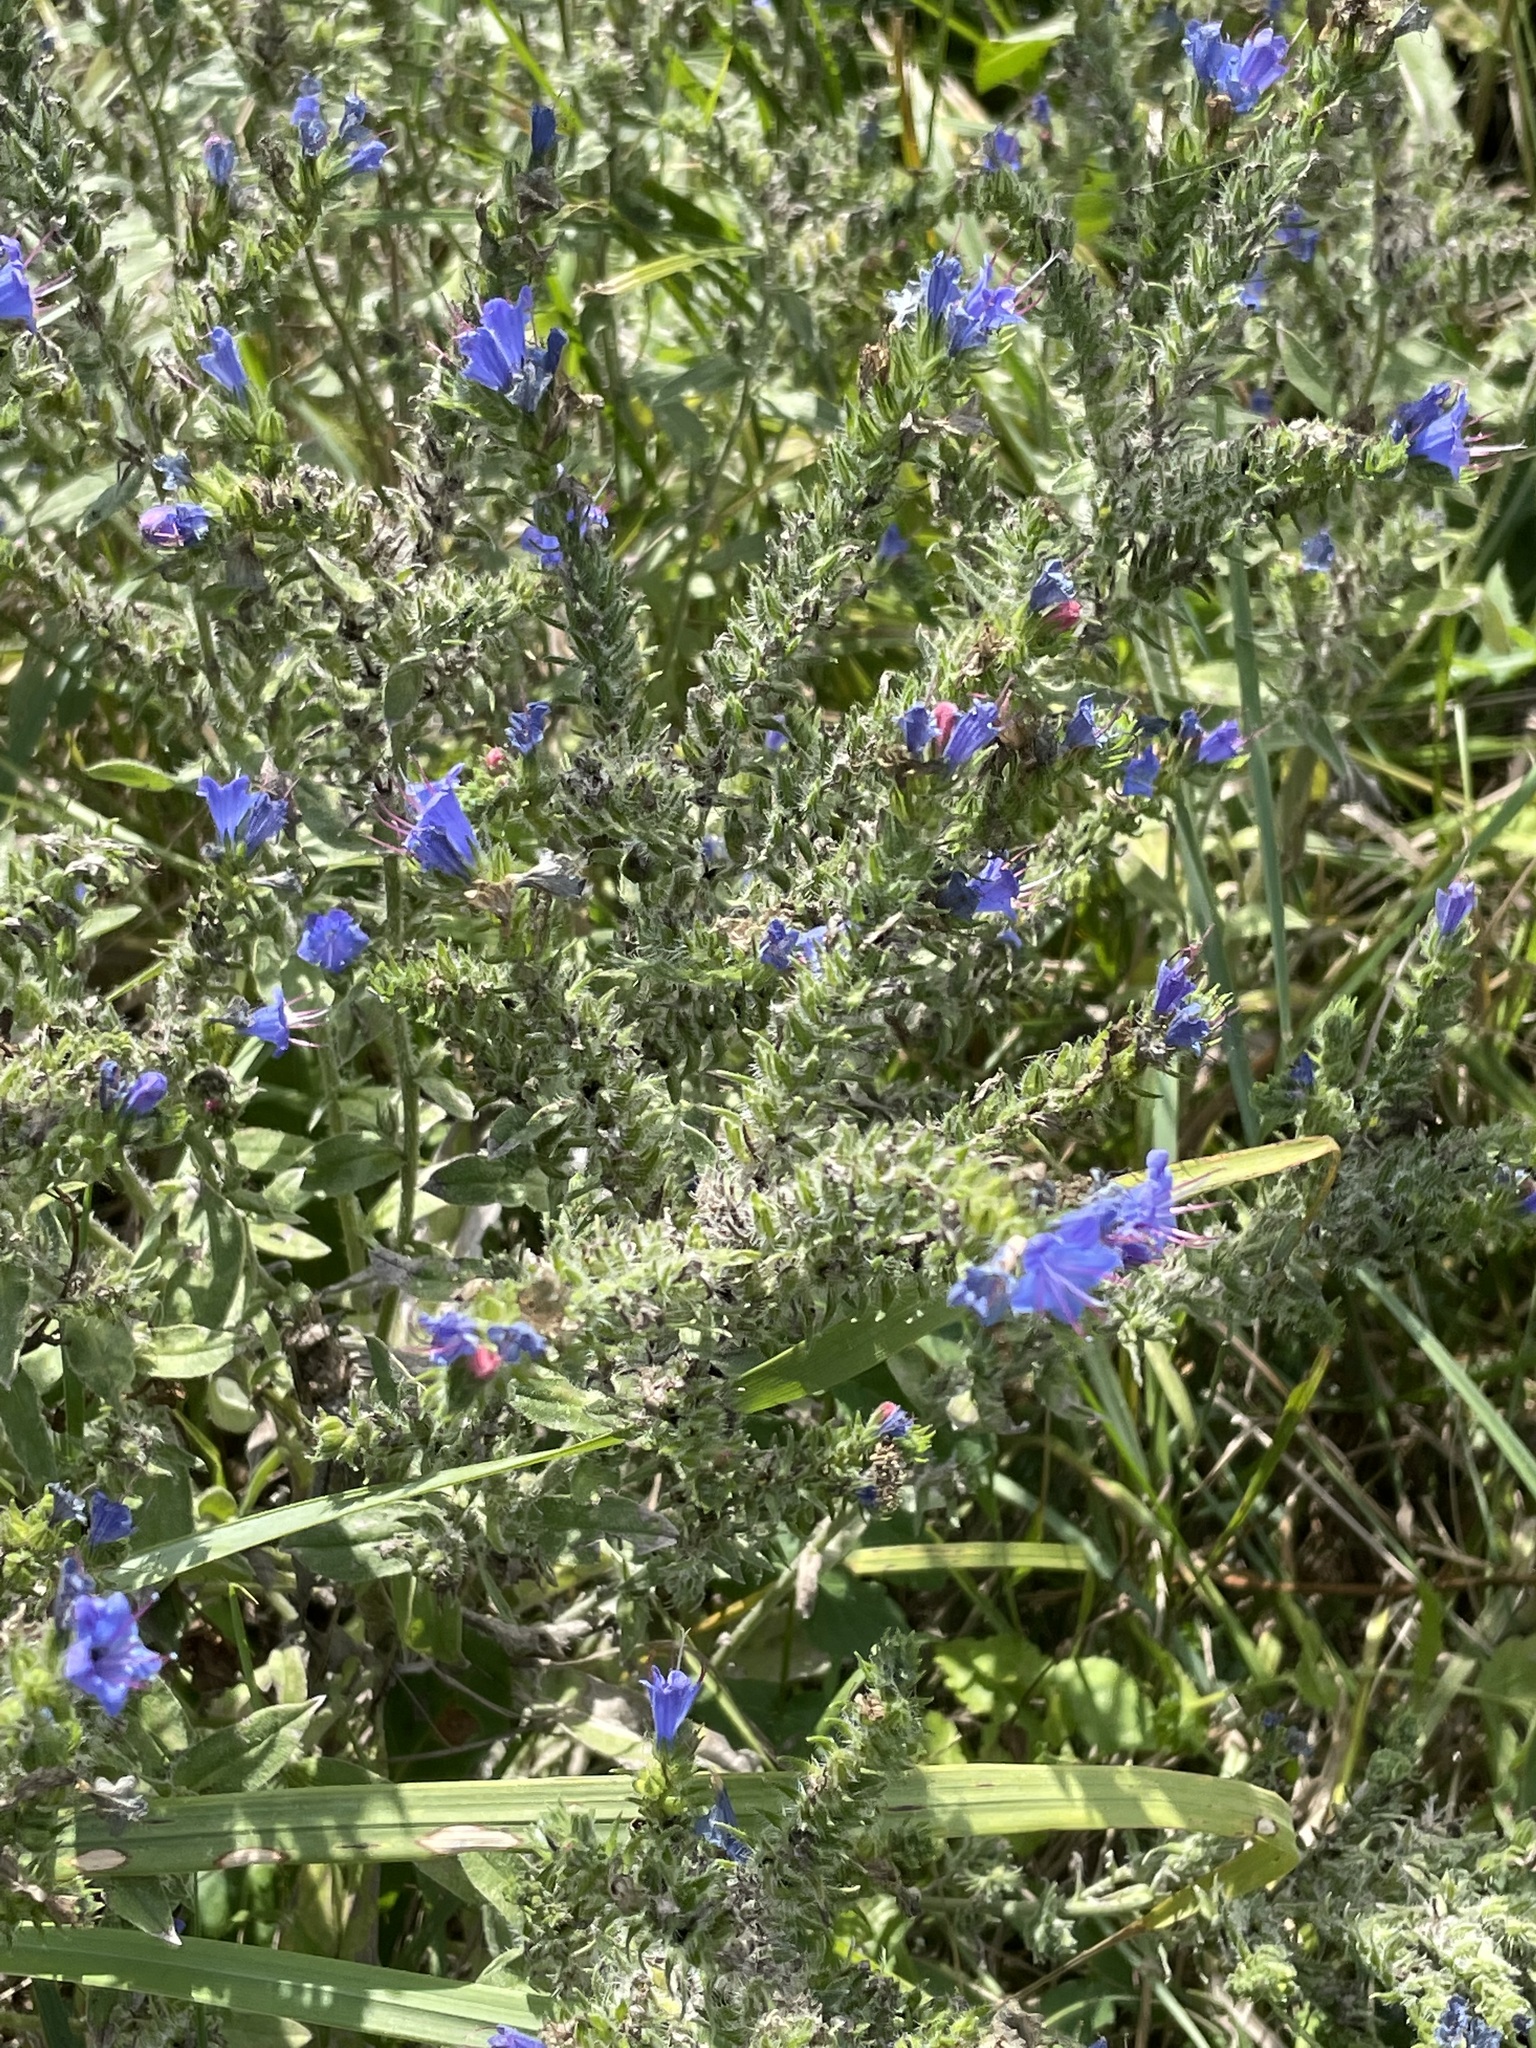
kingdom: Plantae
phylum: Tracheophyta
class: Magnoliopsida
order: Boraginales
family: Boraginaceae
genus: Echium
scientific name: Echium vulgare
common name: Common viper's bugloss
